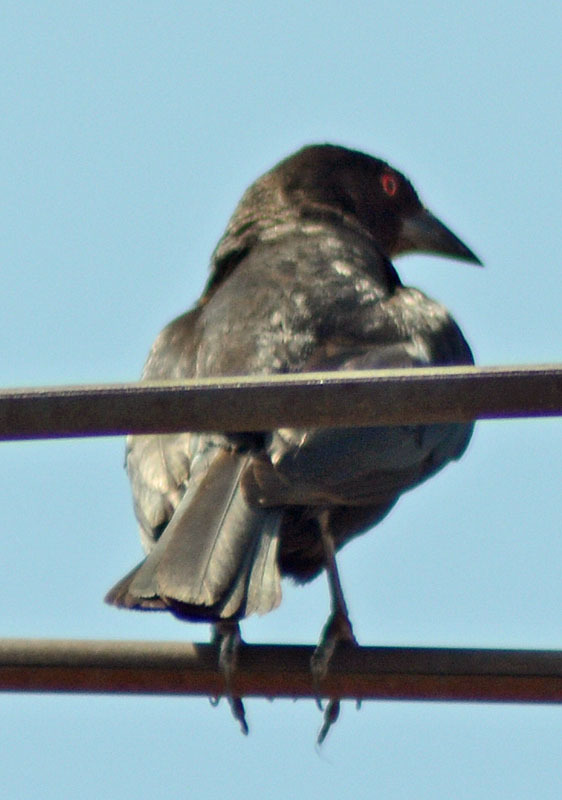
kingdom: Animalia
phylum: Chordata
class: Aves
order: Passeriformes
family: Icteridae
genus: Molothrus
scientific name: Molothrus aeneus
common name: Bronzed cowbird
